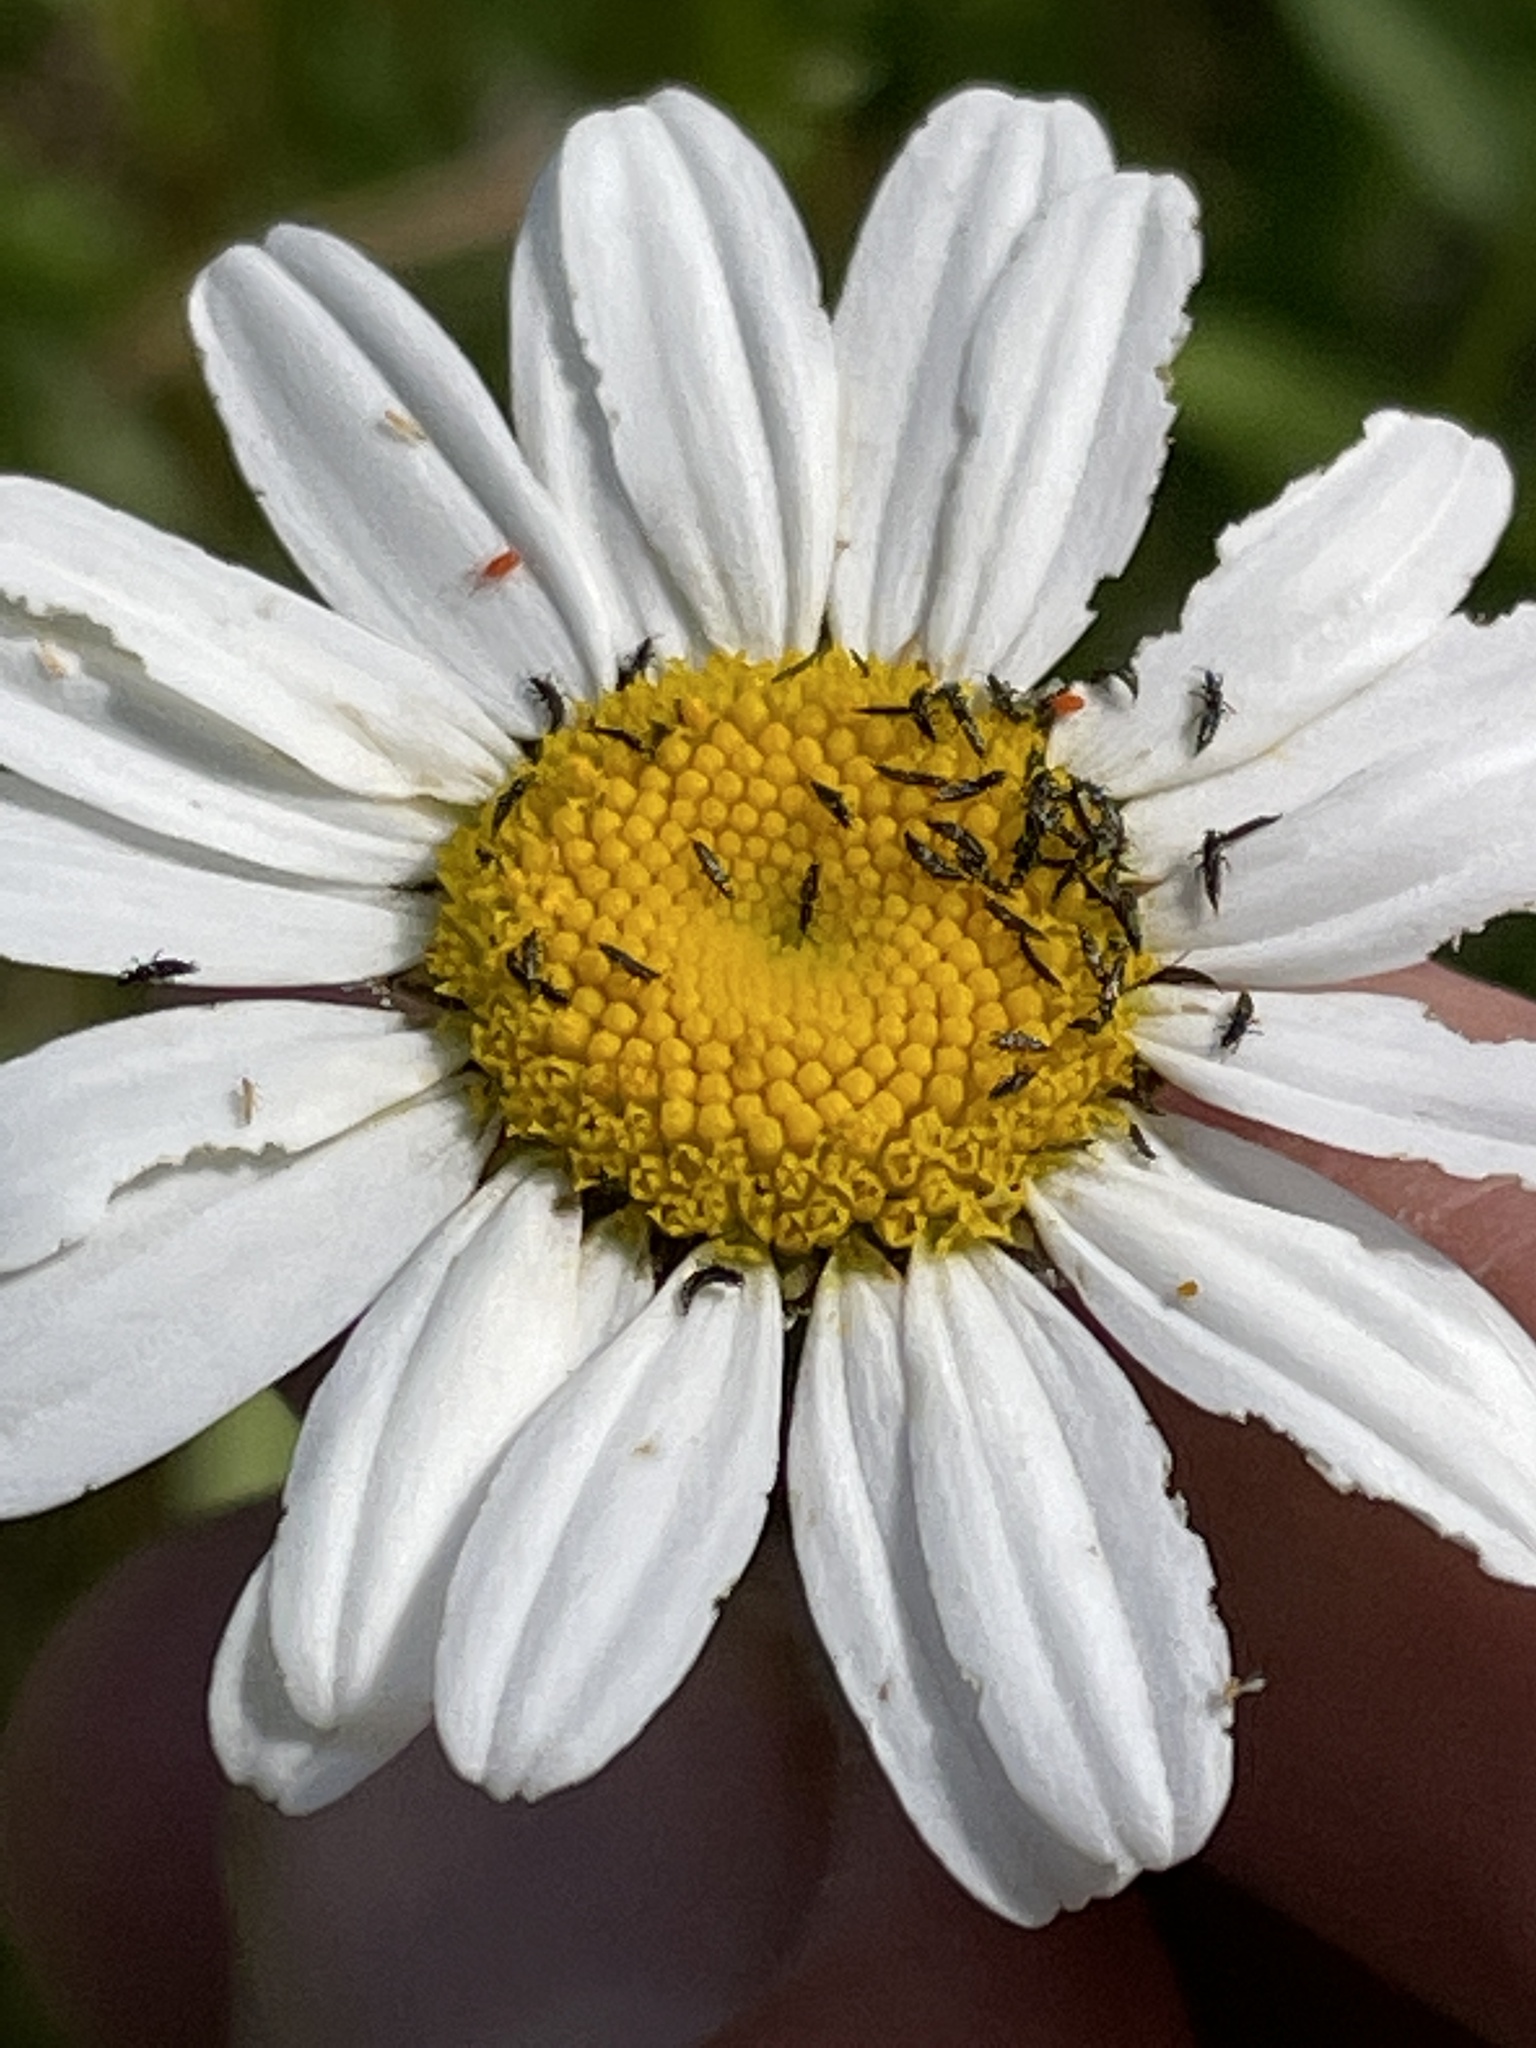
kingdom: Plantae
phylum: Tracheophyta
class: Magnoliopsida
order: Asterales
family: Asteraceae
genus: Leucanthemum
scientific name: Leucanthemum vulgare
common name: Oxeye daisy
